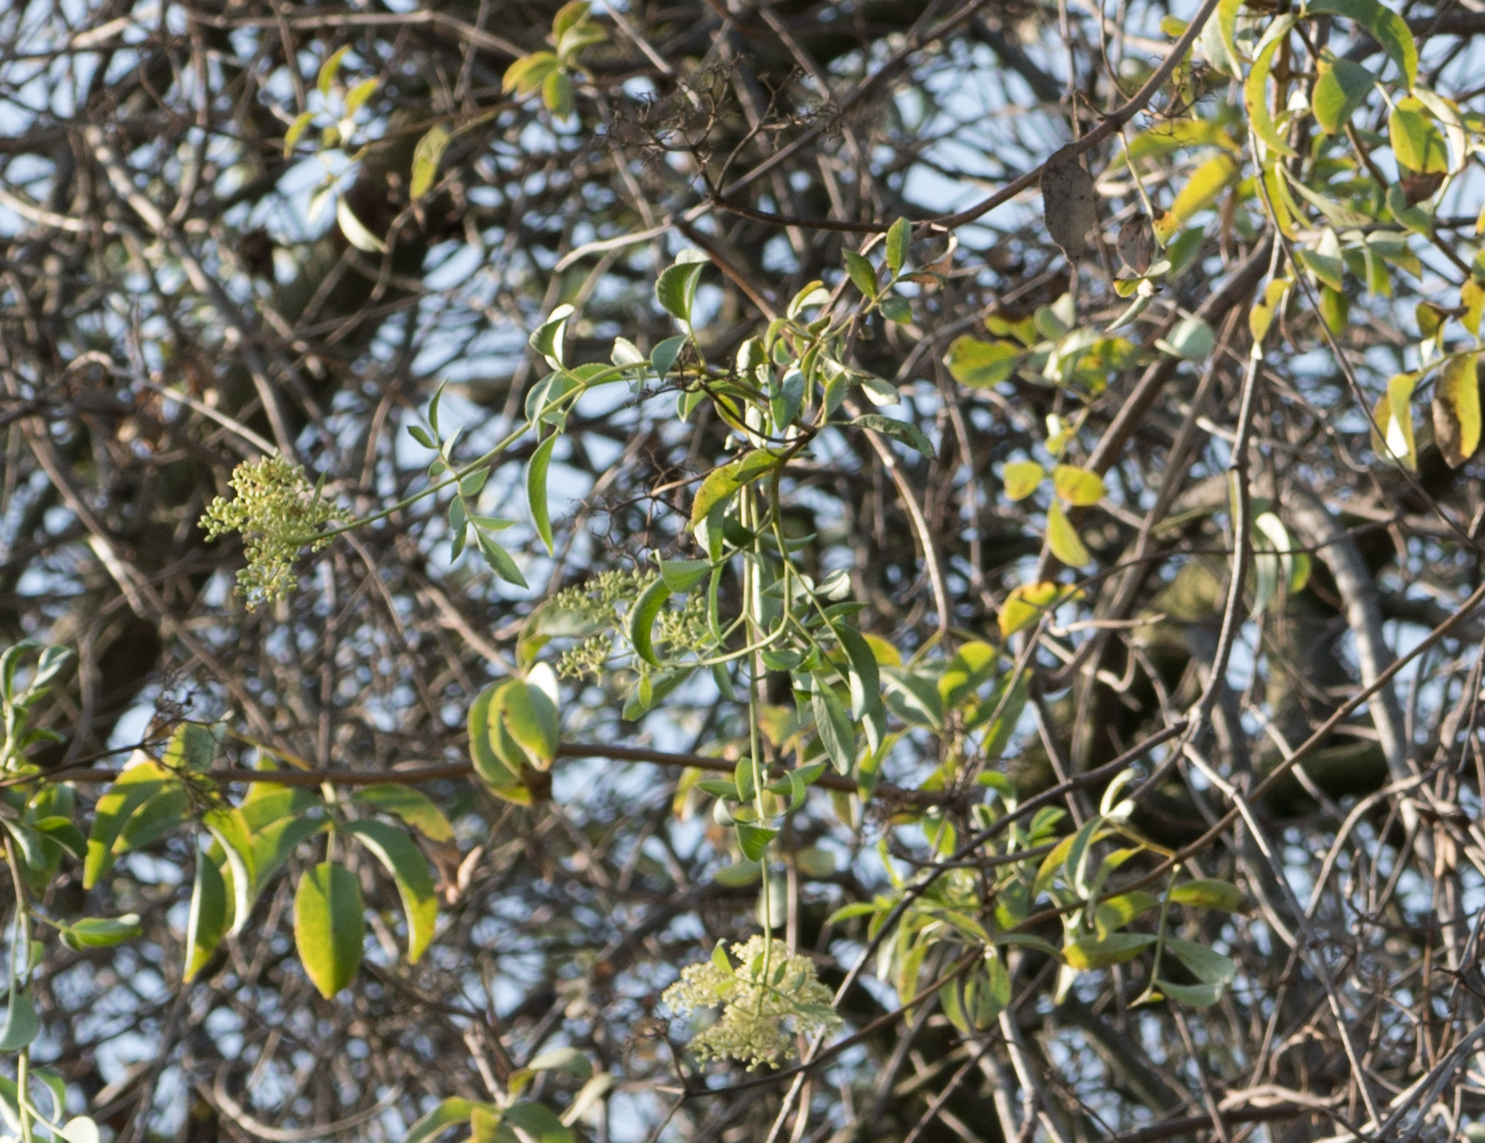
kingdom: Plantae
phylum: Tracheophyta
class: Magnoliopsida
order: Dipsacales
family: Viburnaceae
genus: Sambucus
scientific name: Sambucus cerulea
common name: Blue elder
